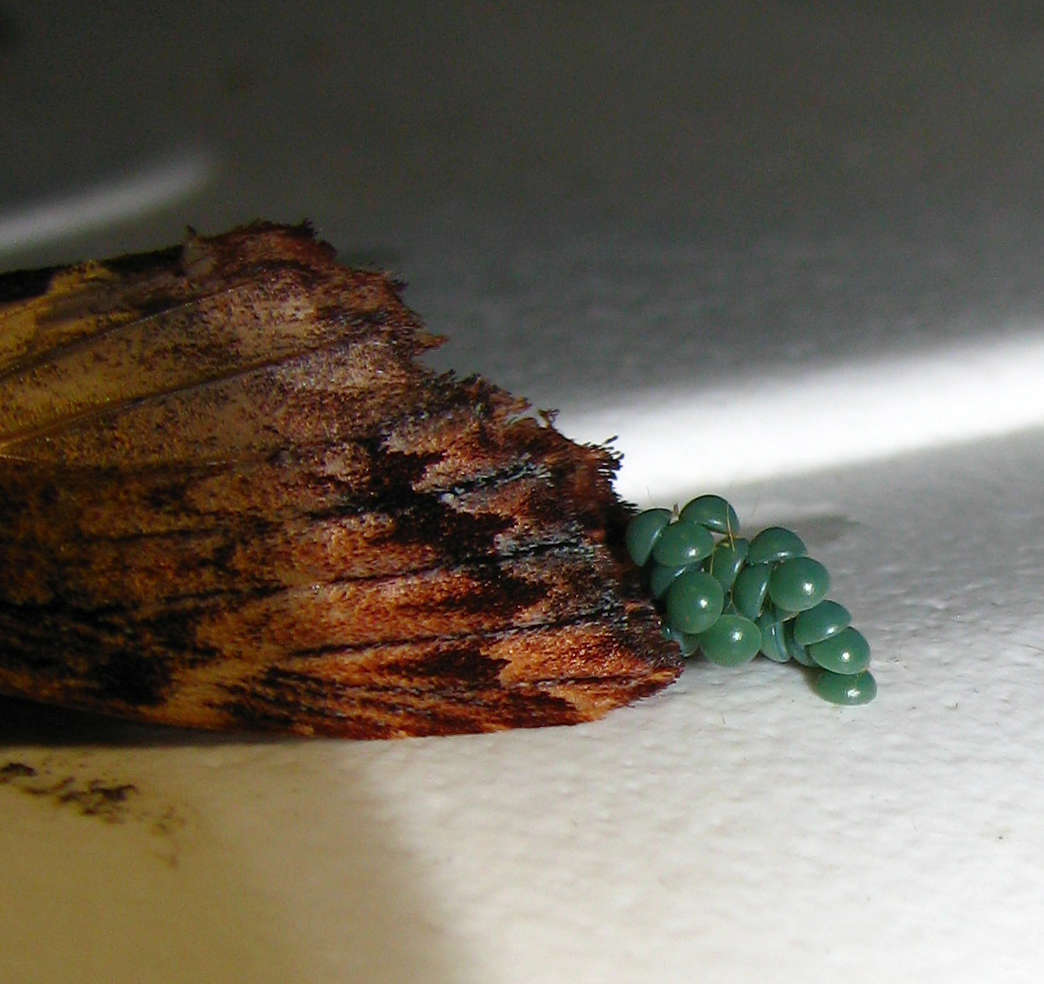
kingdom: Animalia
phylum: Arthropoda
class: Insecta
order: Lepidoptera
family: Notodontidae
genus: Sorama
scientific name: Sorama bicolor
